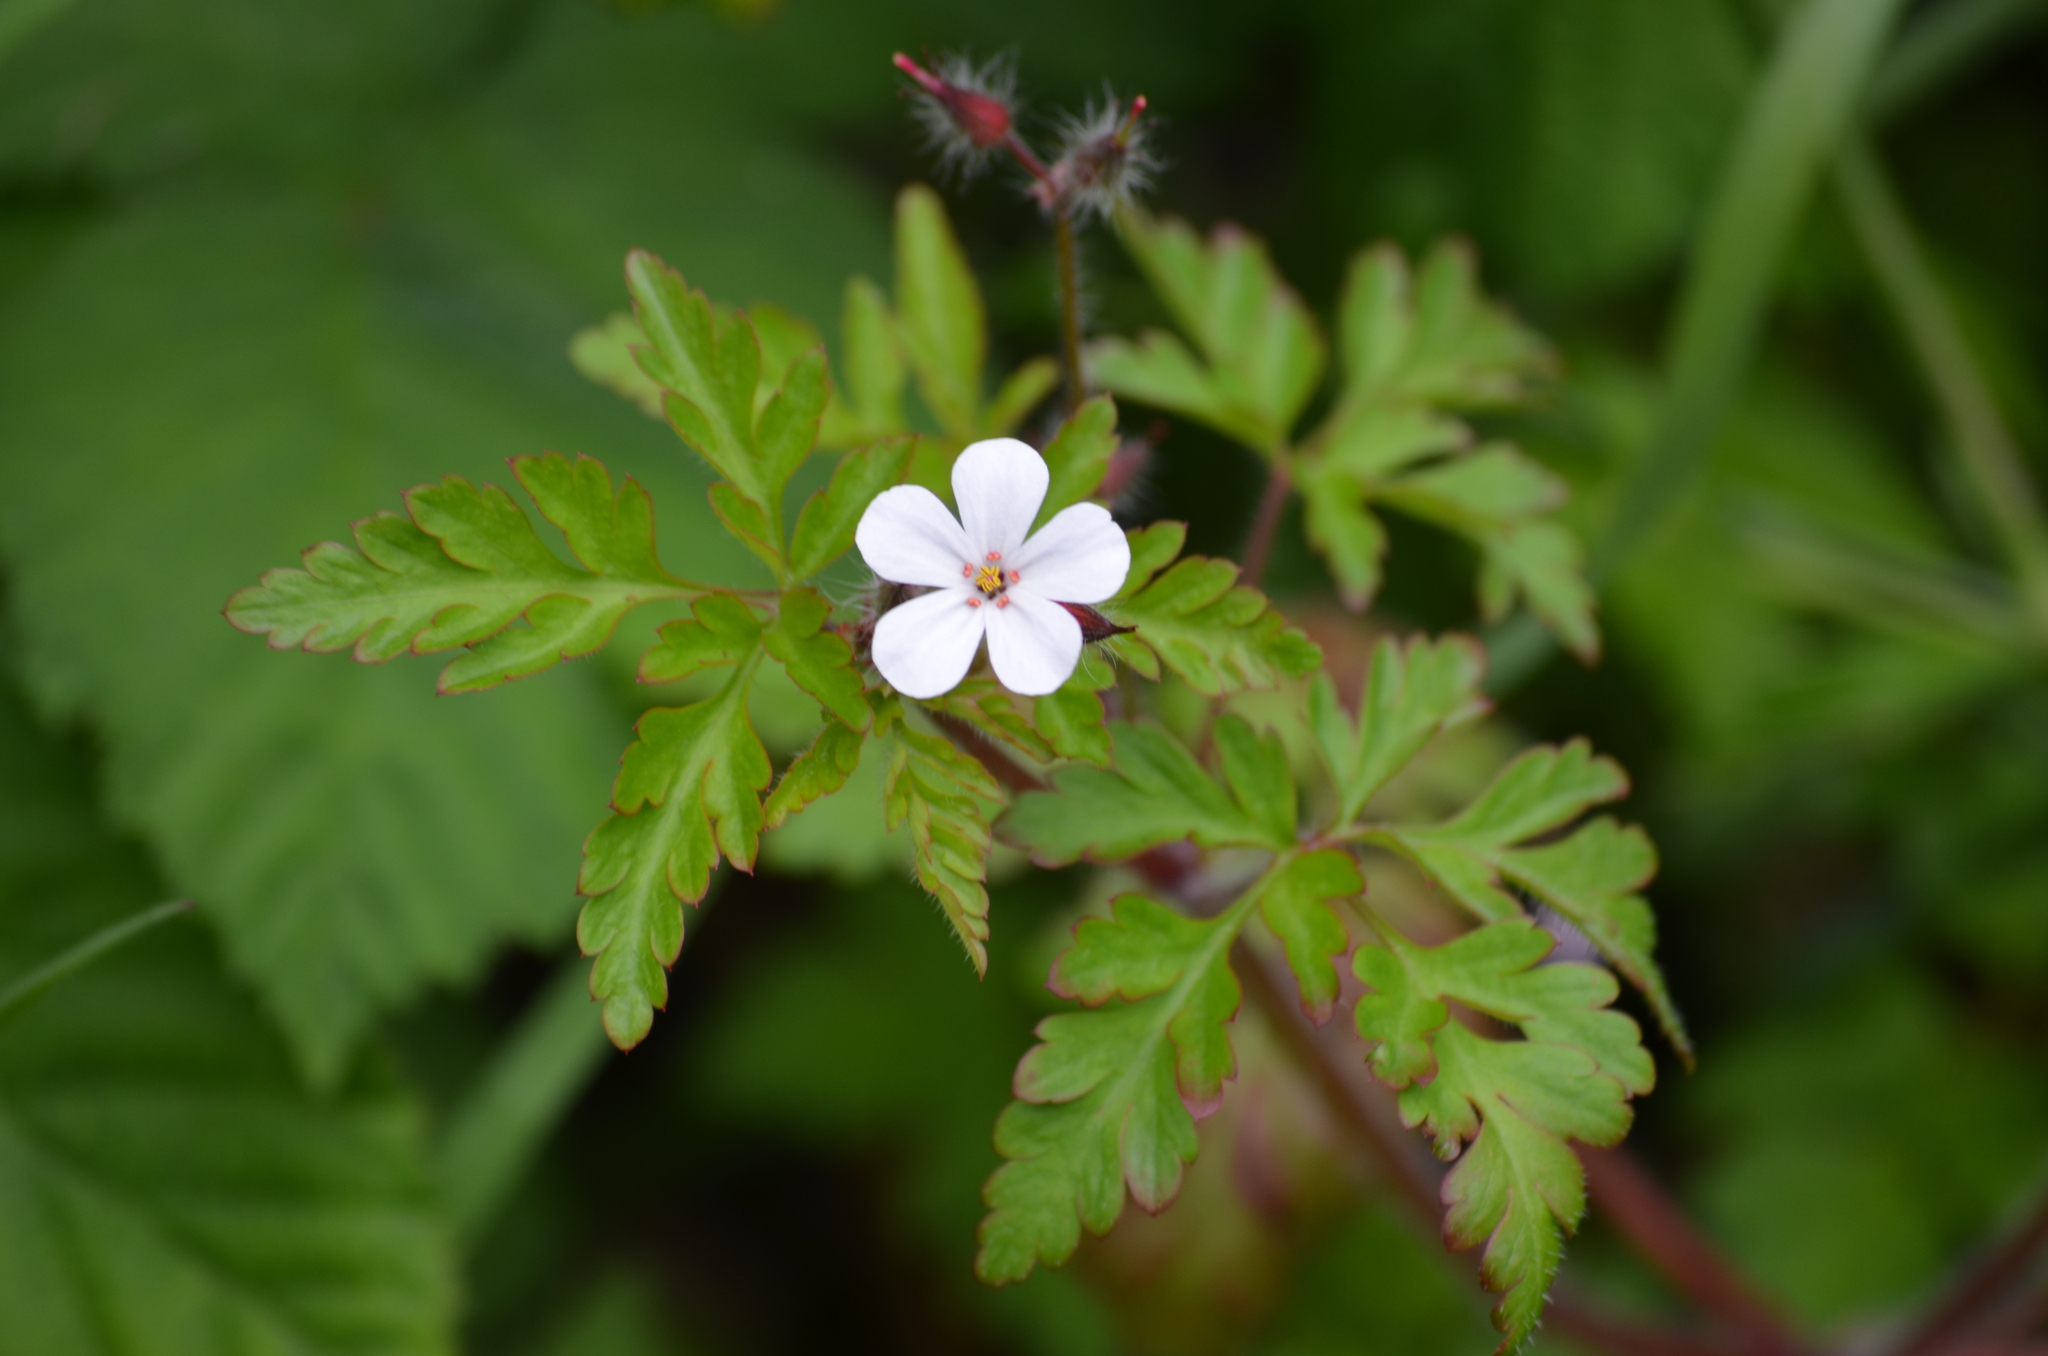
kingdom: Plantae
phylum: Tracheophyta
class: Magnoliopsida
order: Geraniales
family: Geraniaceae
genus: Geranium
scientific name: Geranium robertianum
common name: Herb-robert
